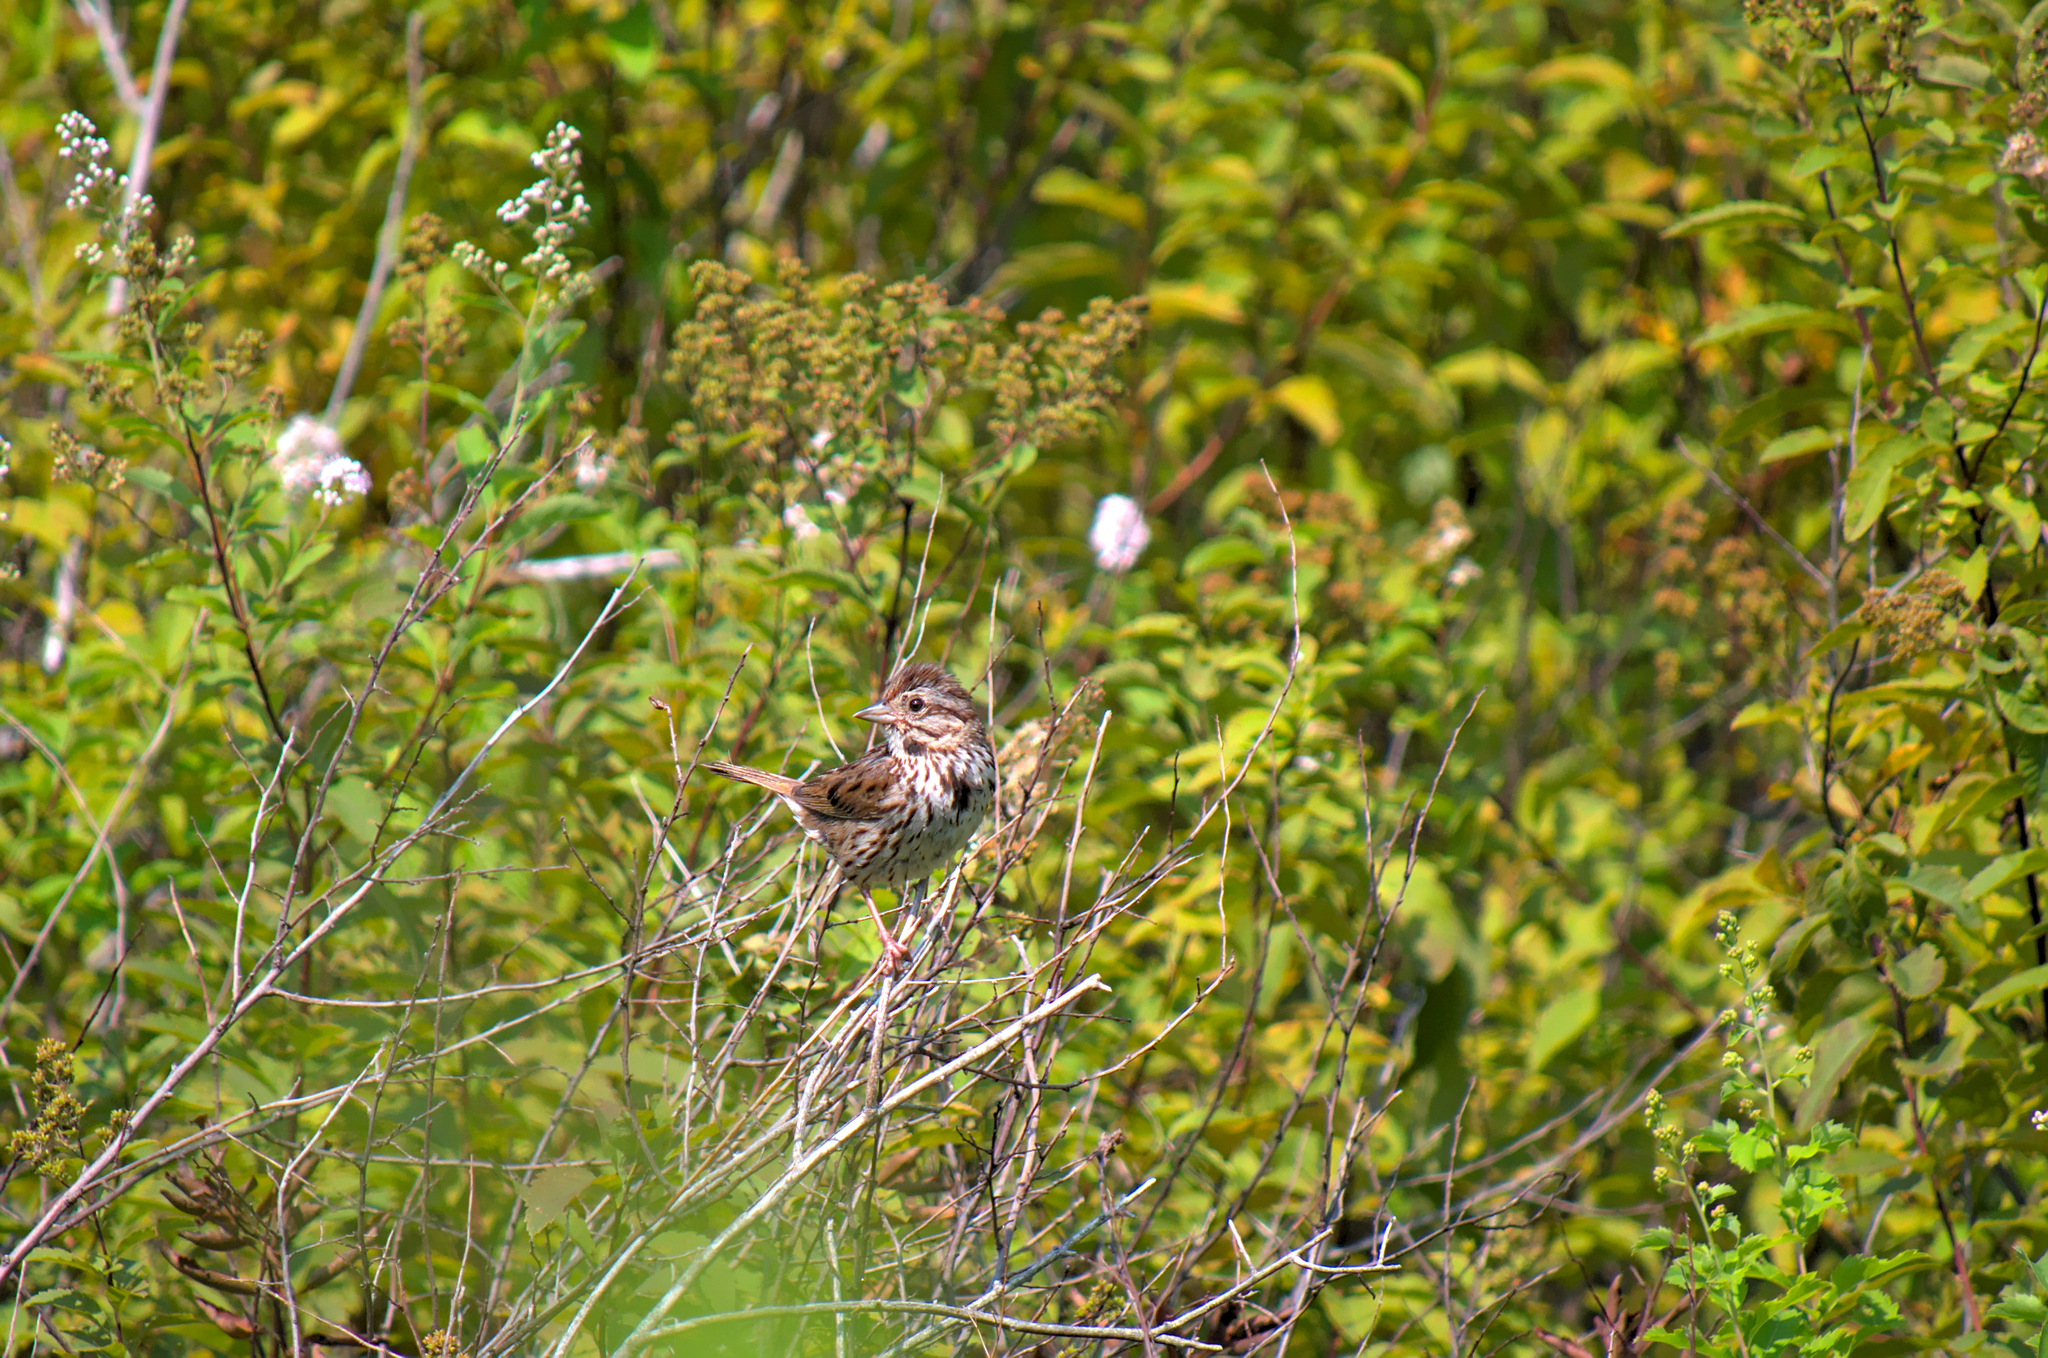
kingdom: Animalia
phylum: Chordata
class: Aves
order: Passeriformes
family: Passerellidae
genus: Melospiza
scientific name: Melospiza melodia
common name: Song sparrow
